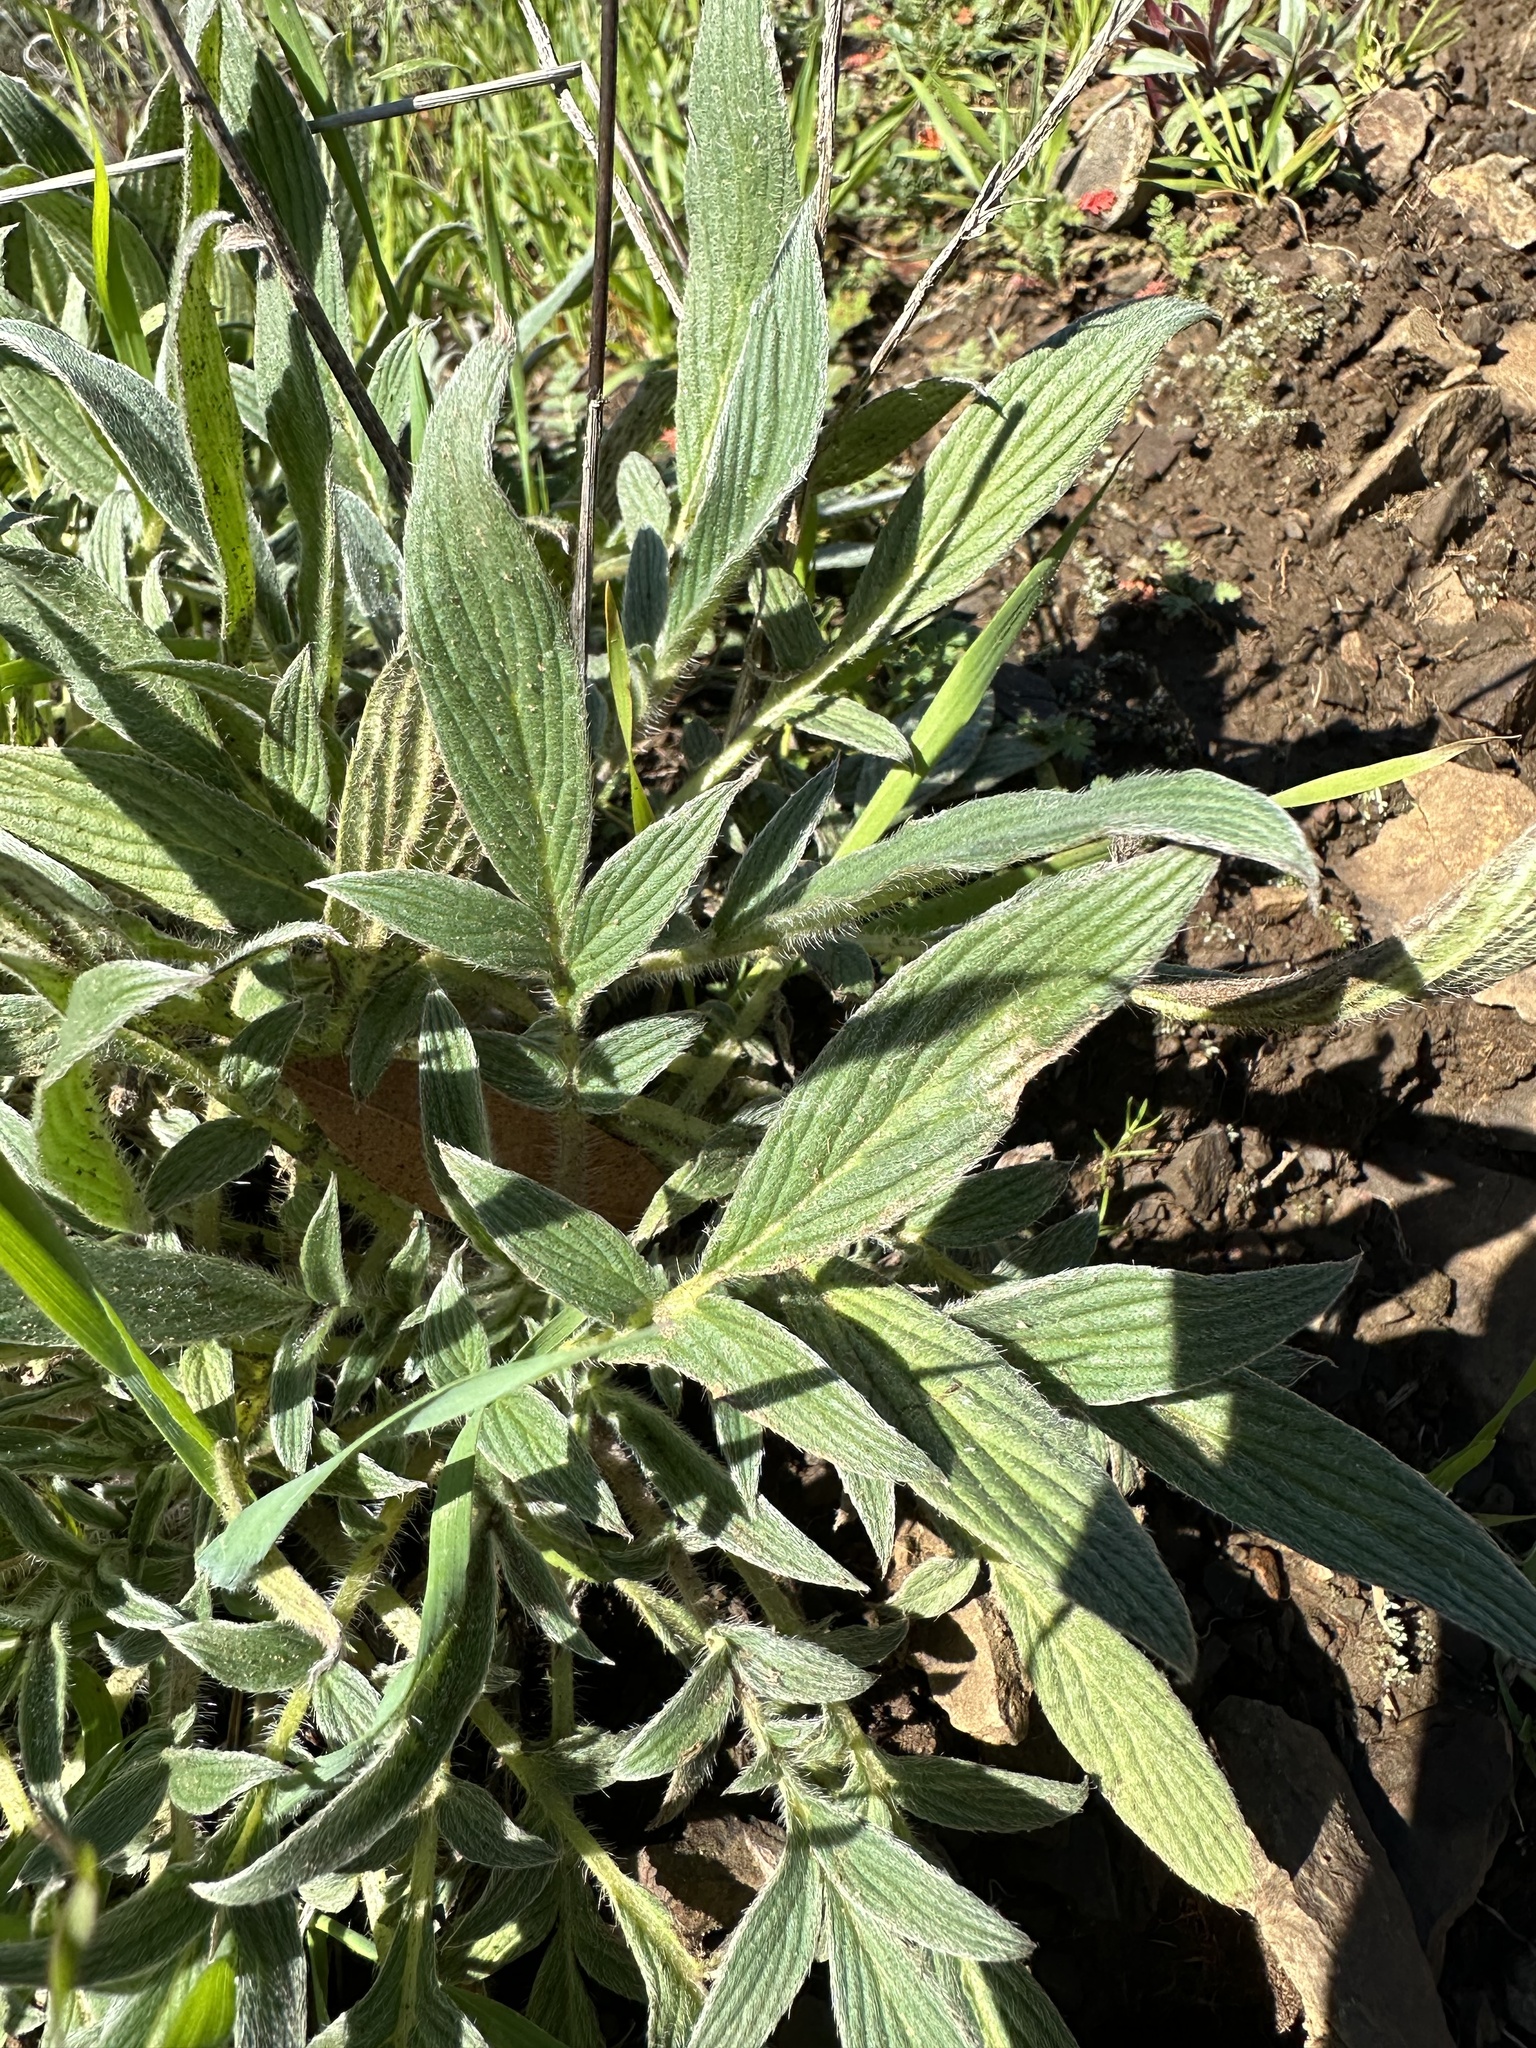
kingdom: Plantae
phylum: Tracheophyta
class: Magnoliopsida
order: Boraginales
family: Hydrophyllaceae
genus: Phacelia
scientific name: Phacelia imbricata
